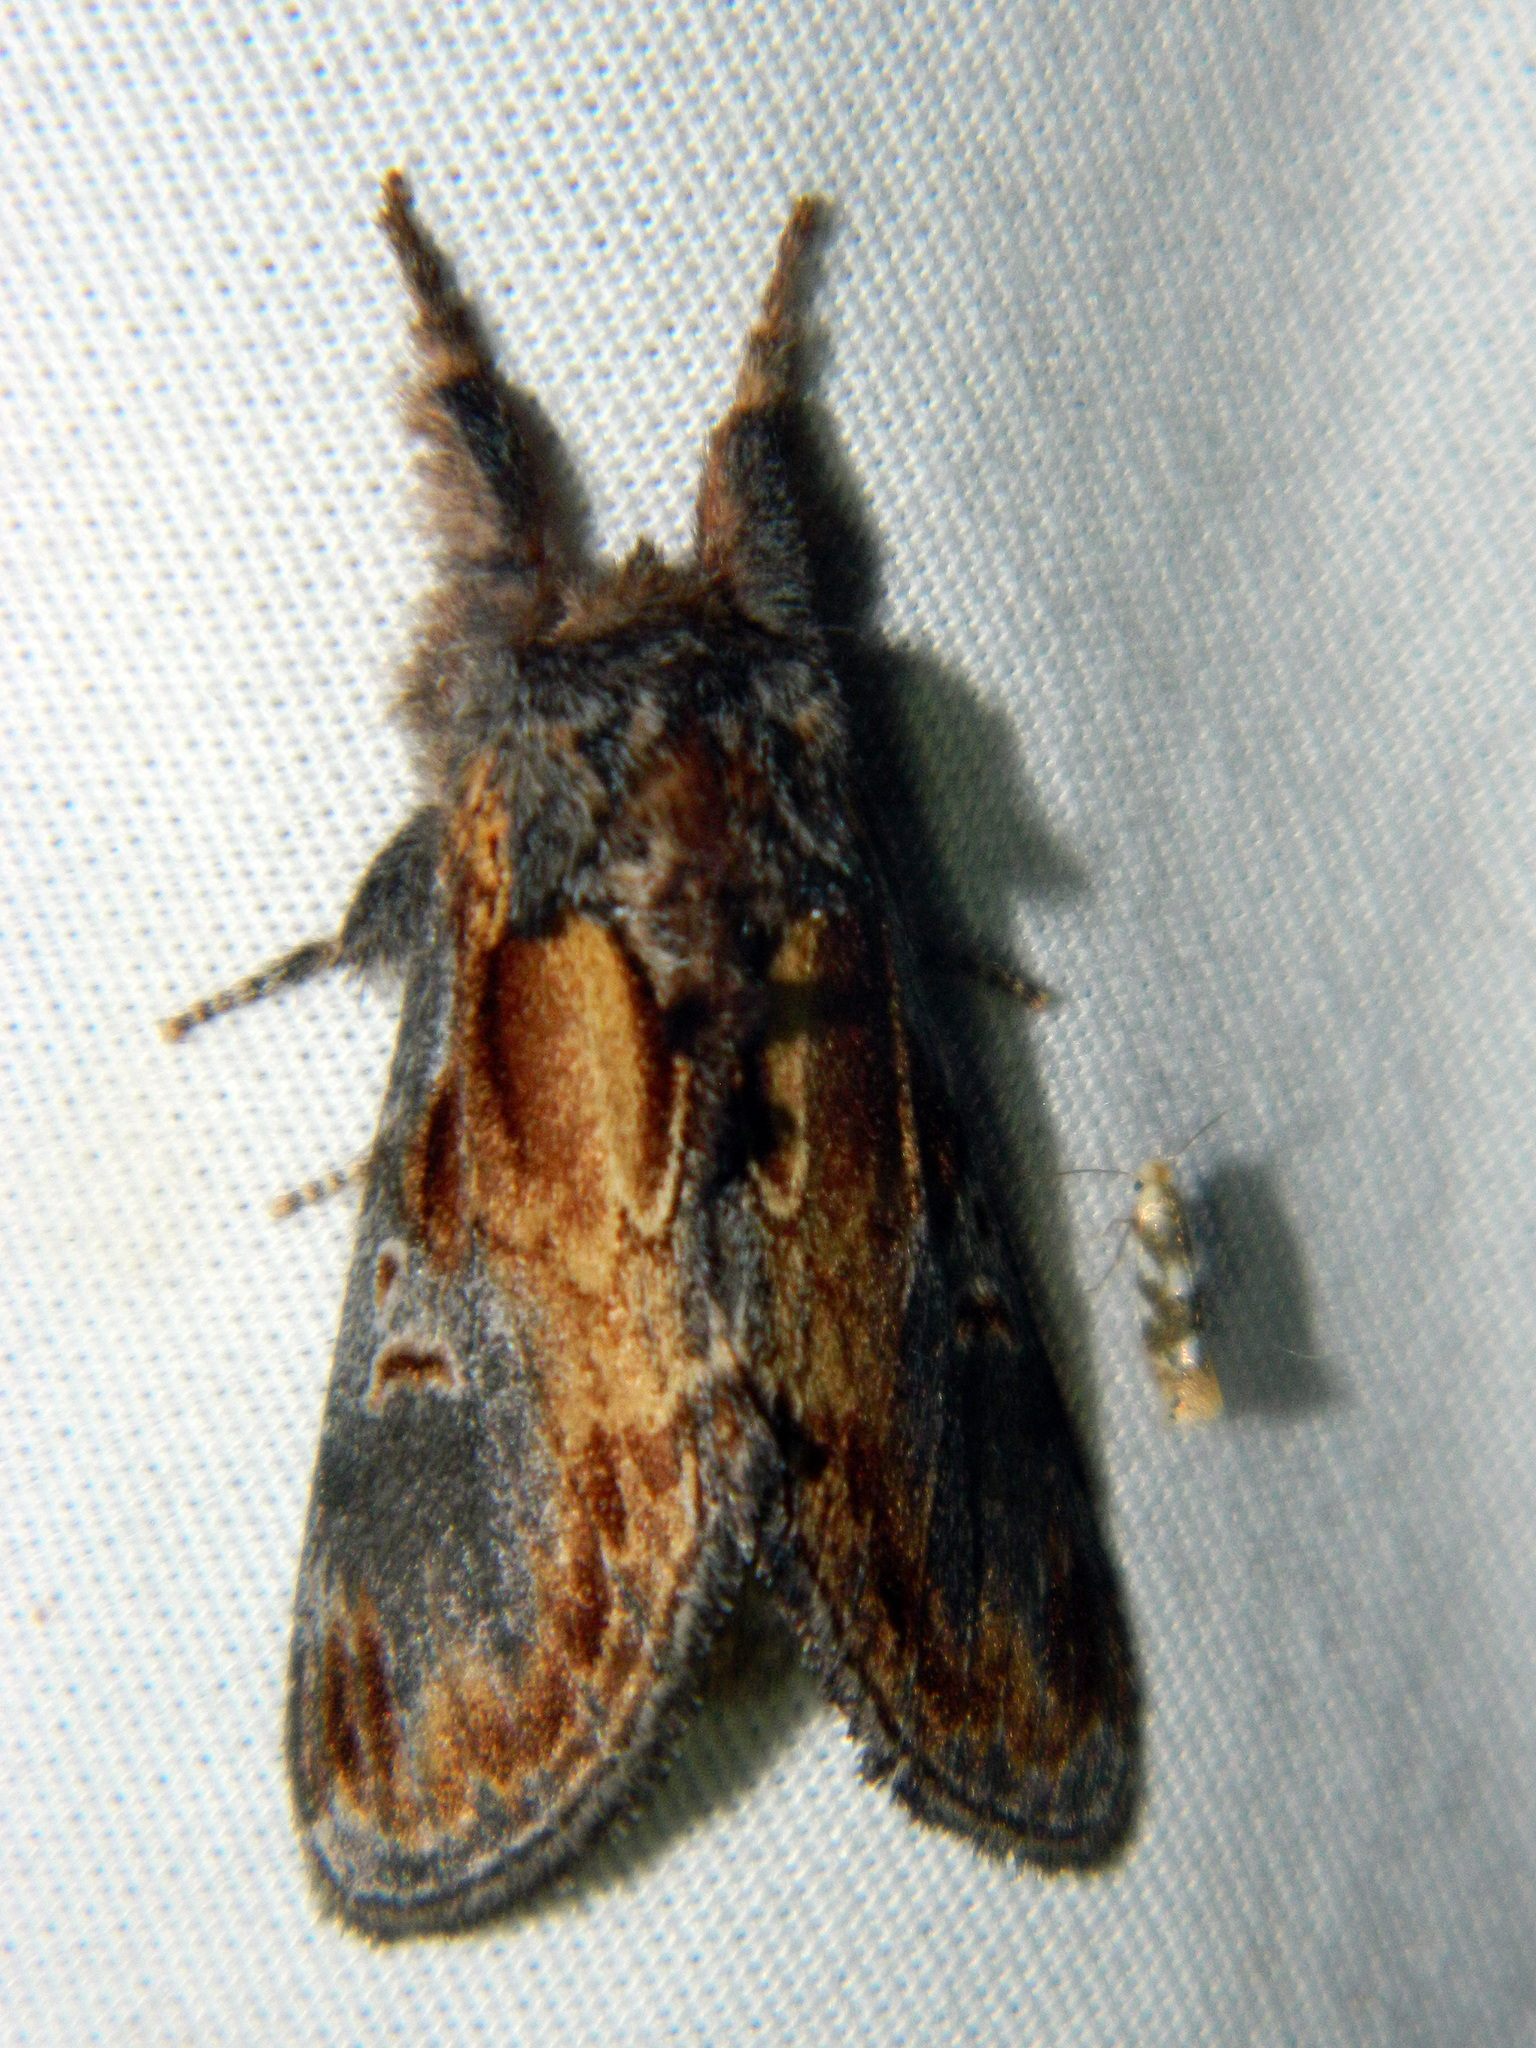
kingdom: Animalia
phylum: Arthropoda
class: Insecta
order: Lepidoptera
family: Notodontidae
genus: Notodonta
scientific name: Notodonta scitipennis
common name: Finned-willow prominent moth
